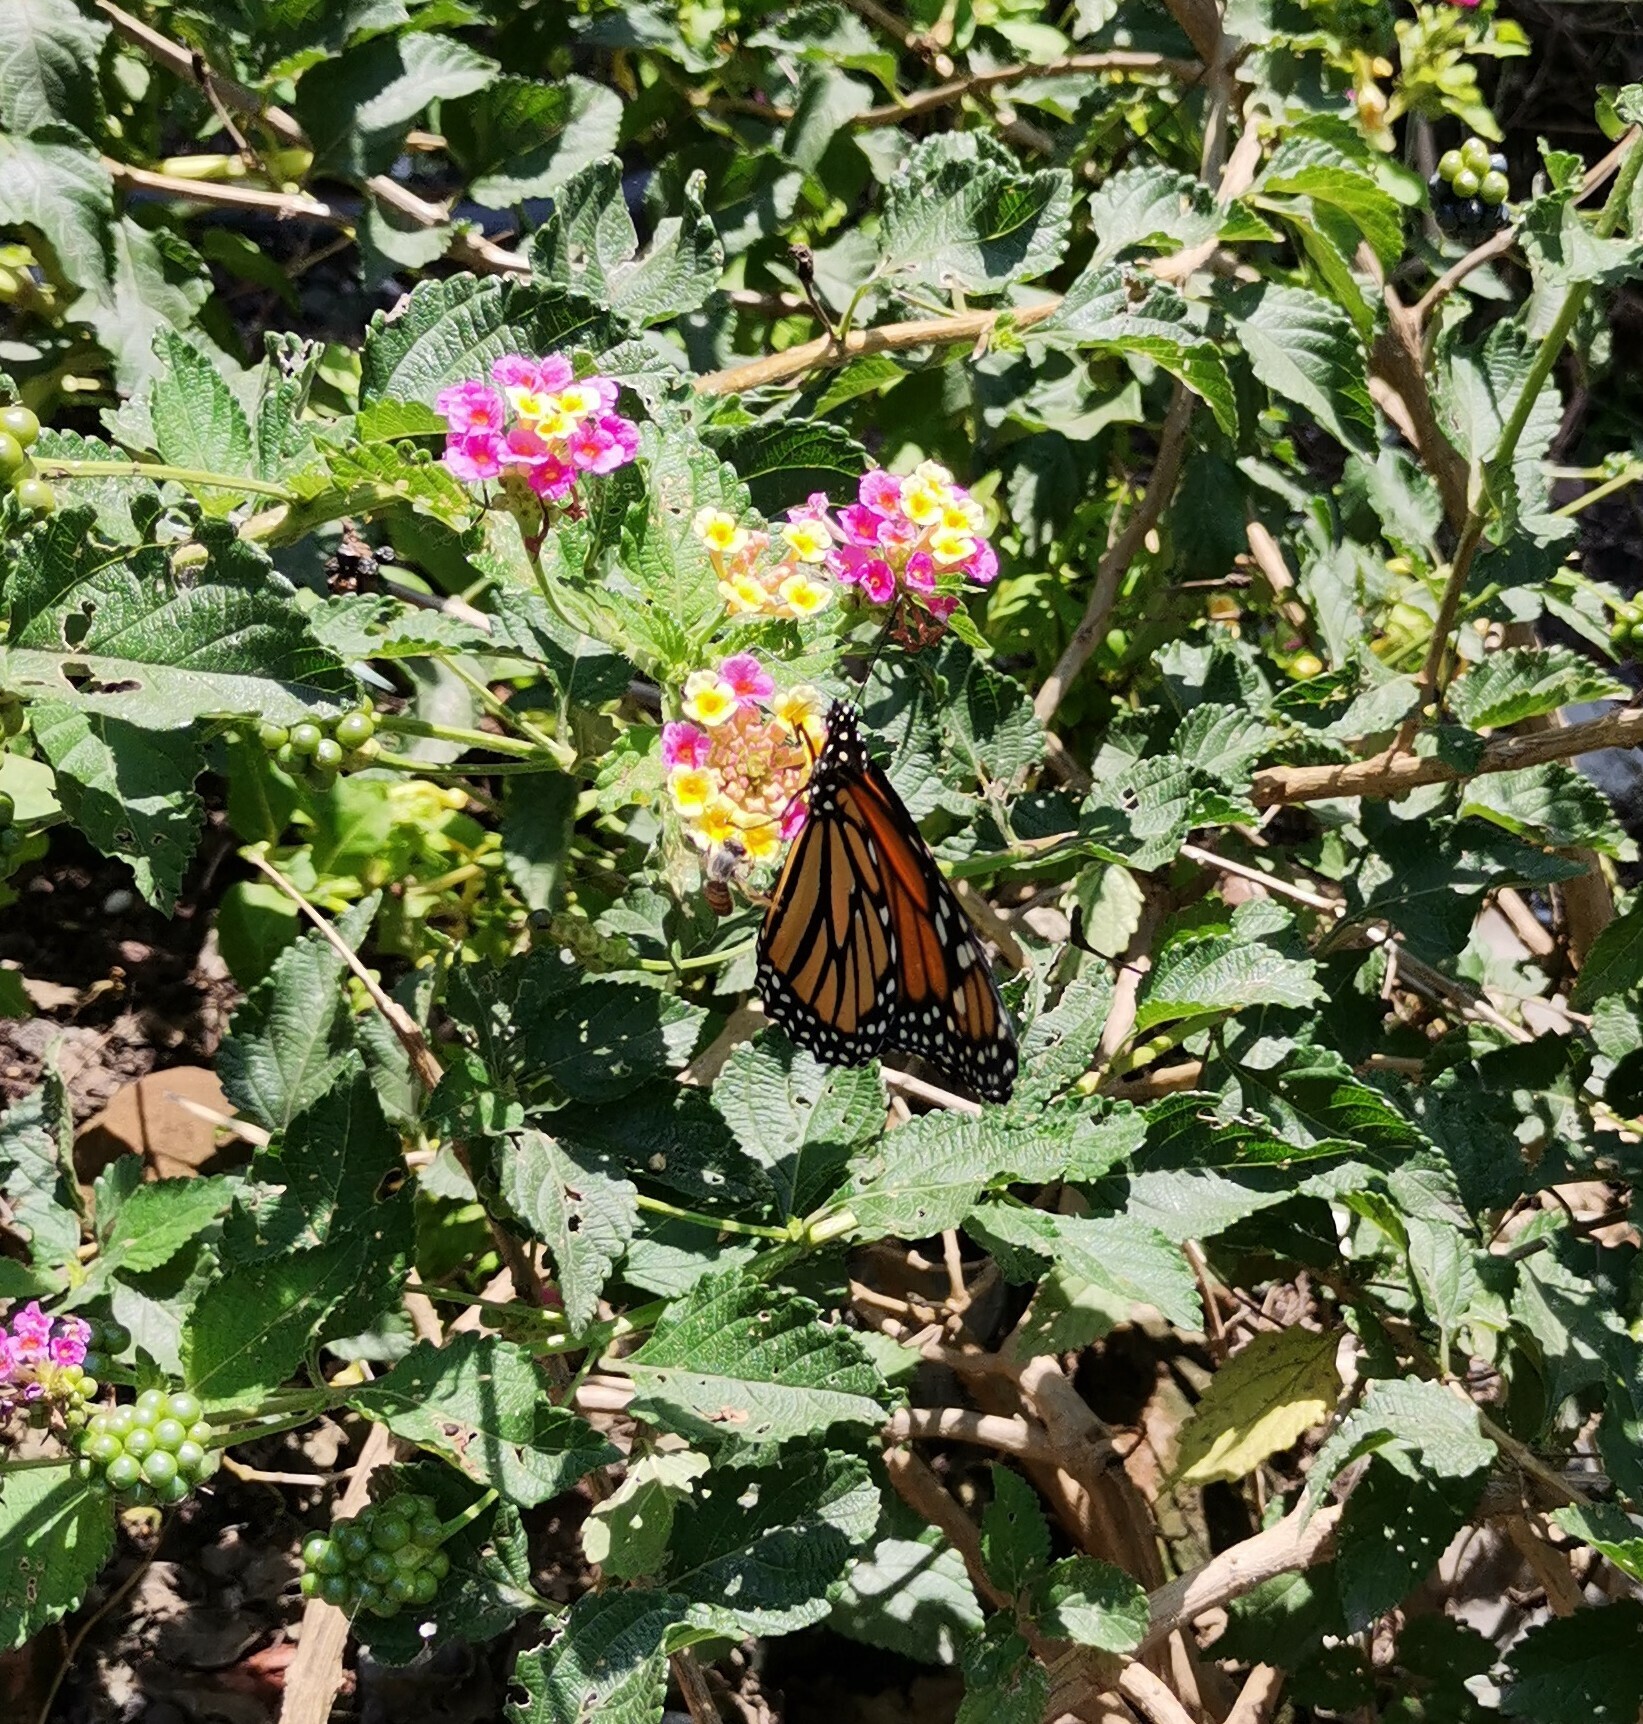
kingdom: Animalia
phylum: Arthropoda
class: Insecta
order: Hymenoptera
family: Apidae
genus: Apis
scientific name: Apis mellifera
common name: Honey bee
